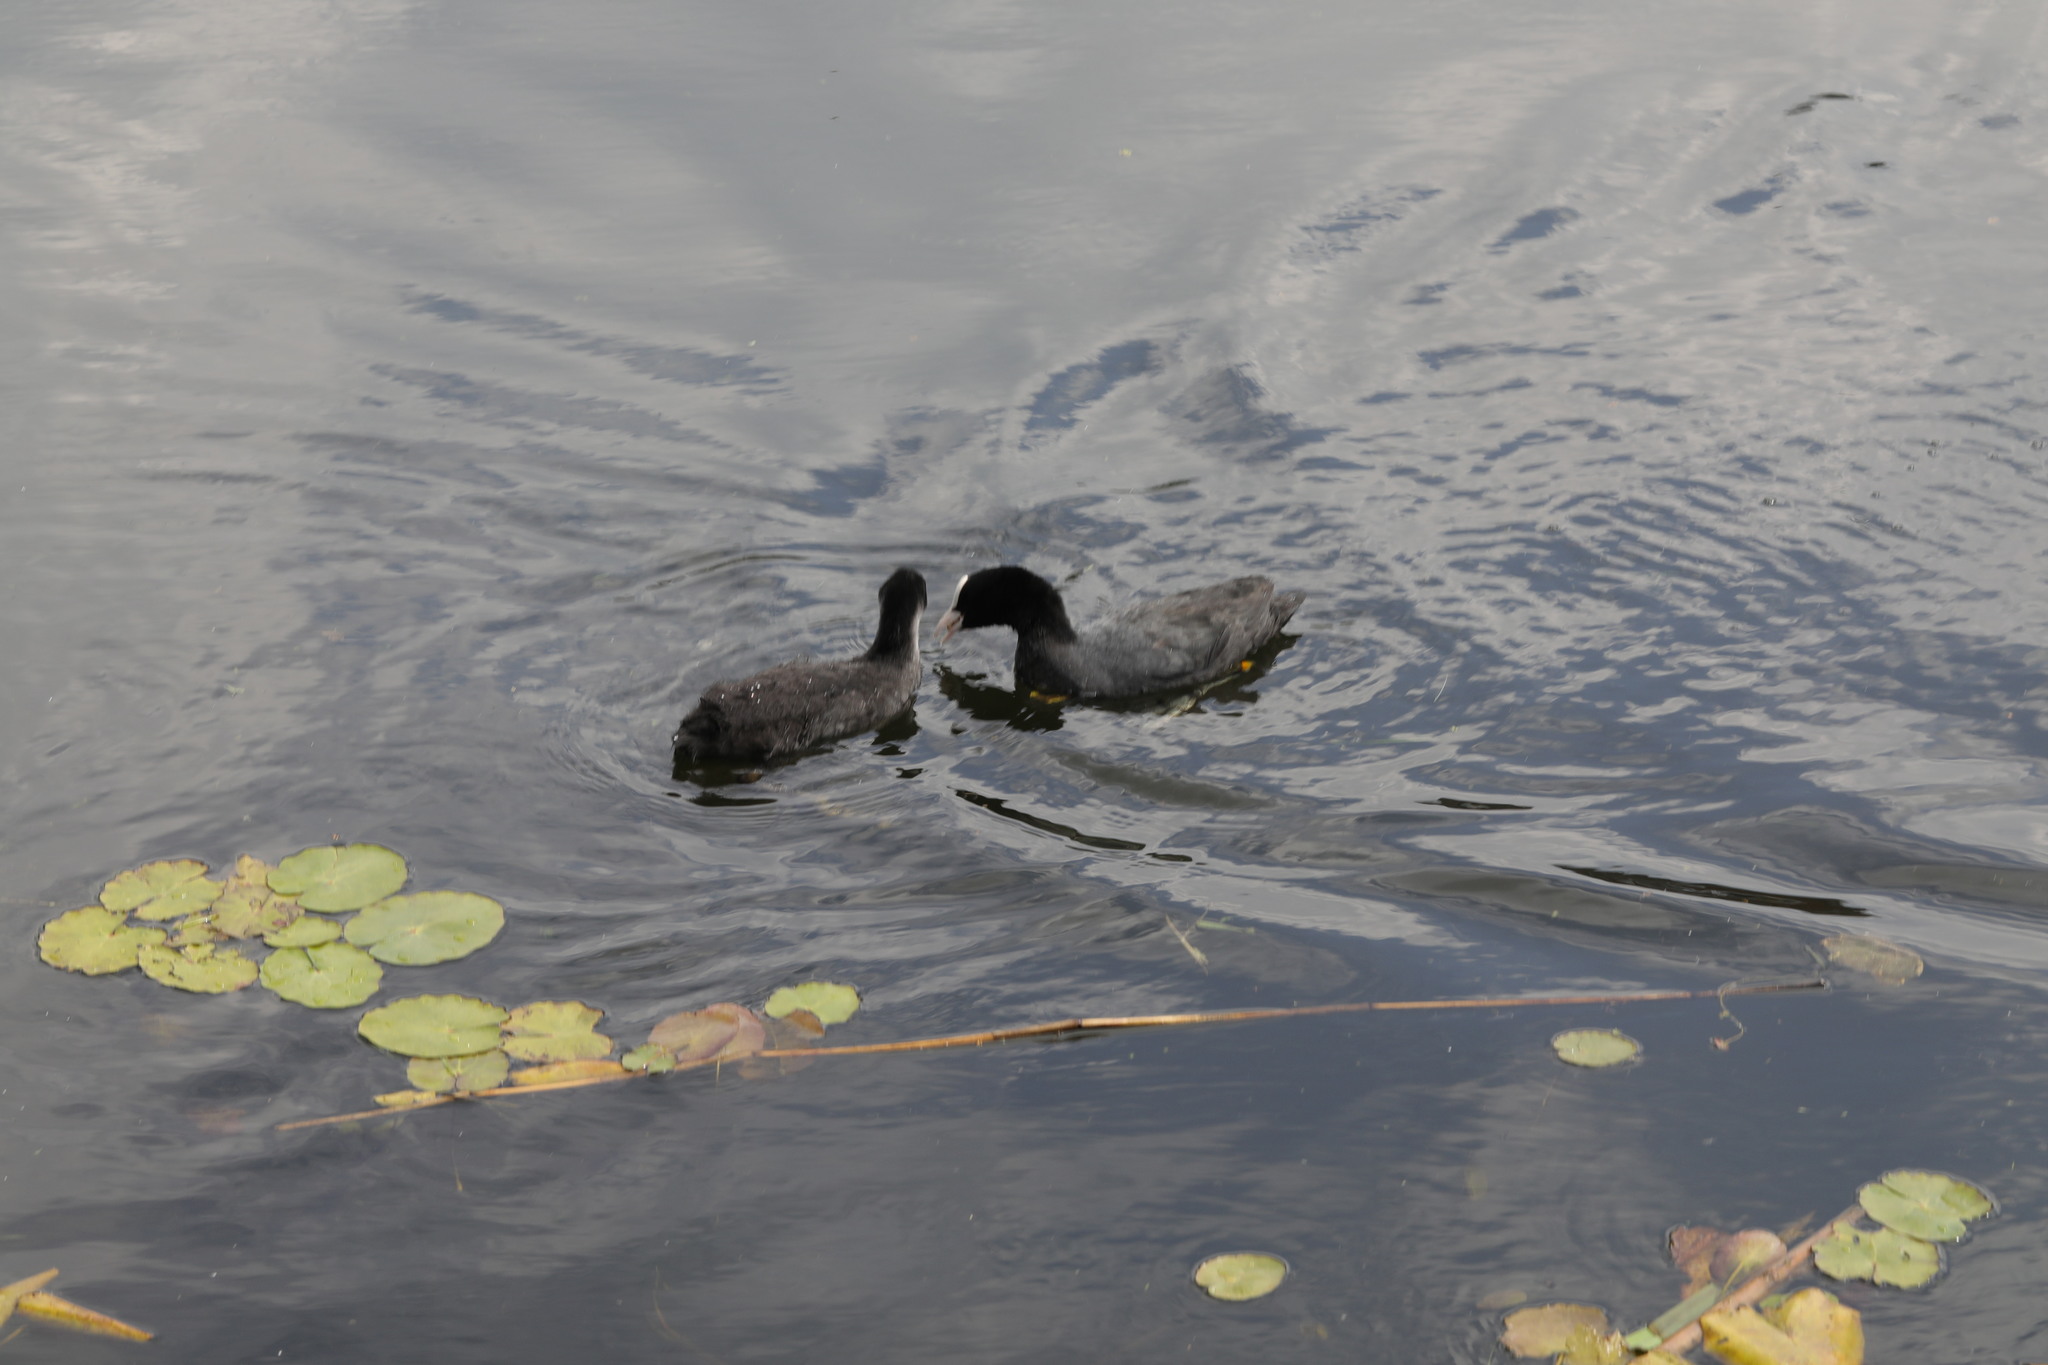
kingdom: Animalia
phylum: Chordata
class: Aves
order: Gruiformes
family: Rallidae
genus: Fulica
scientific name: Fulica atra
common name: Eurasian coot
